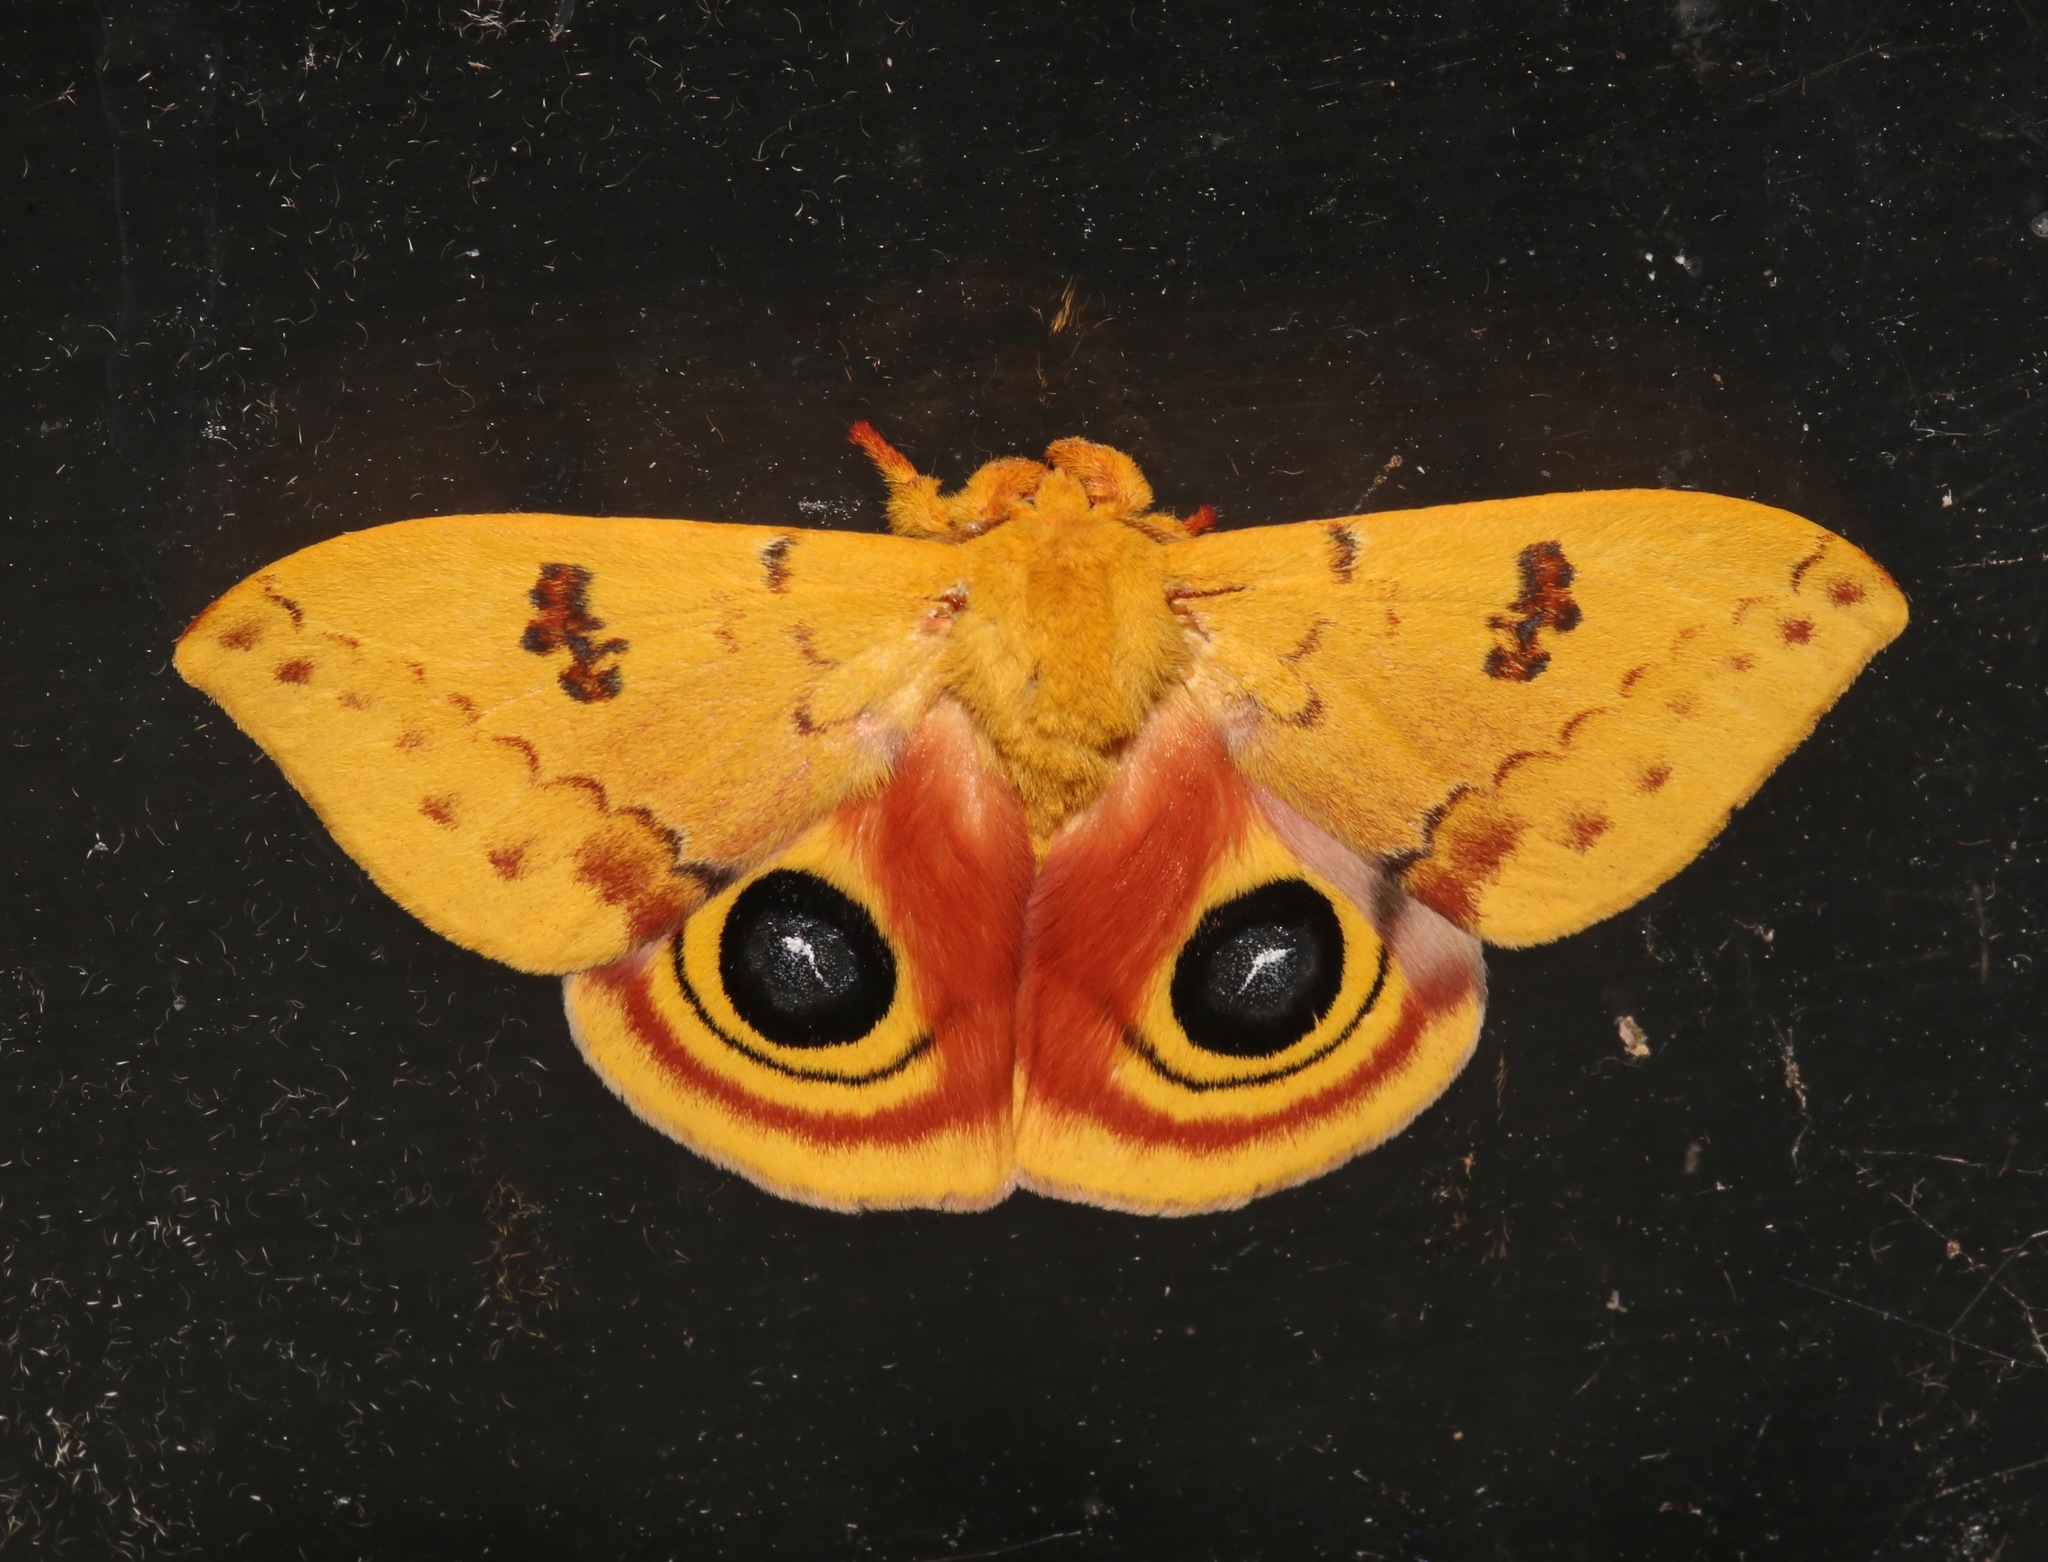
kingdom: Animalia
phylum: Arthropoda
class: Insecta
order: Lepidoptera
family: Saturniidae
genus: Automeris
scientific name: Automeris io
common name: Io moth
